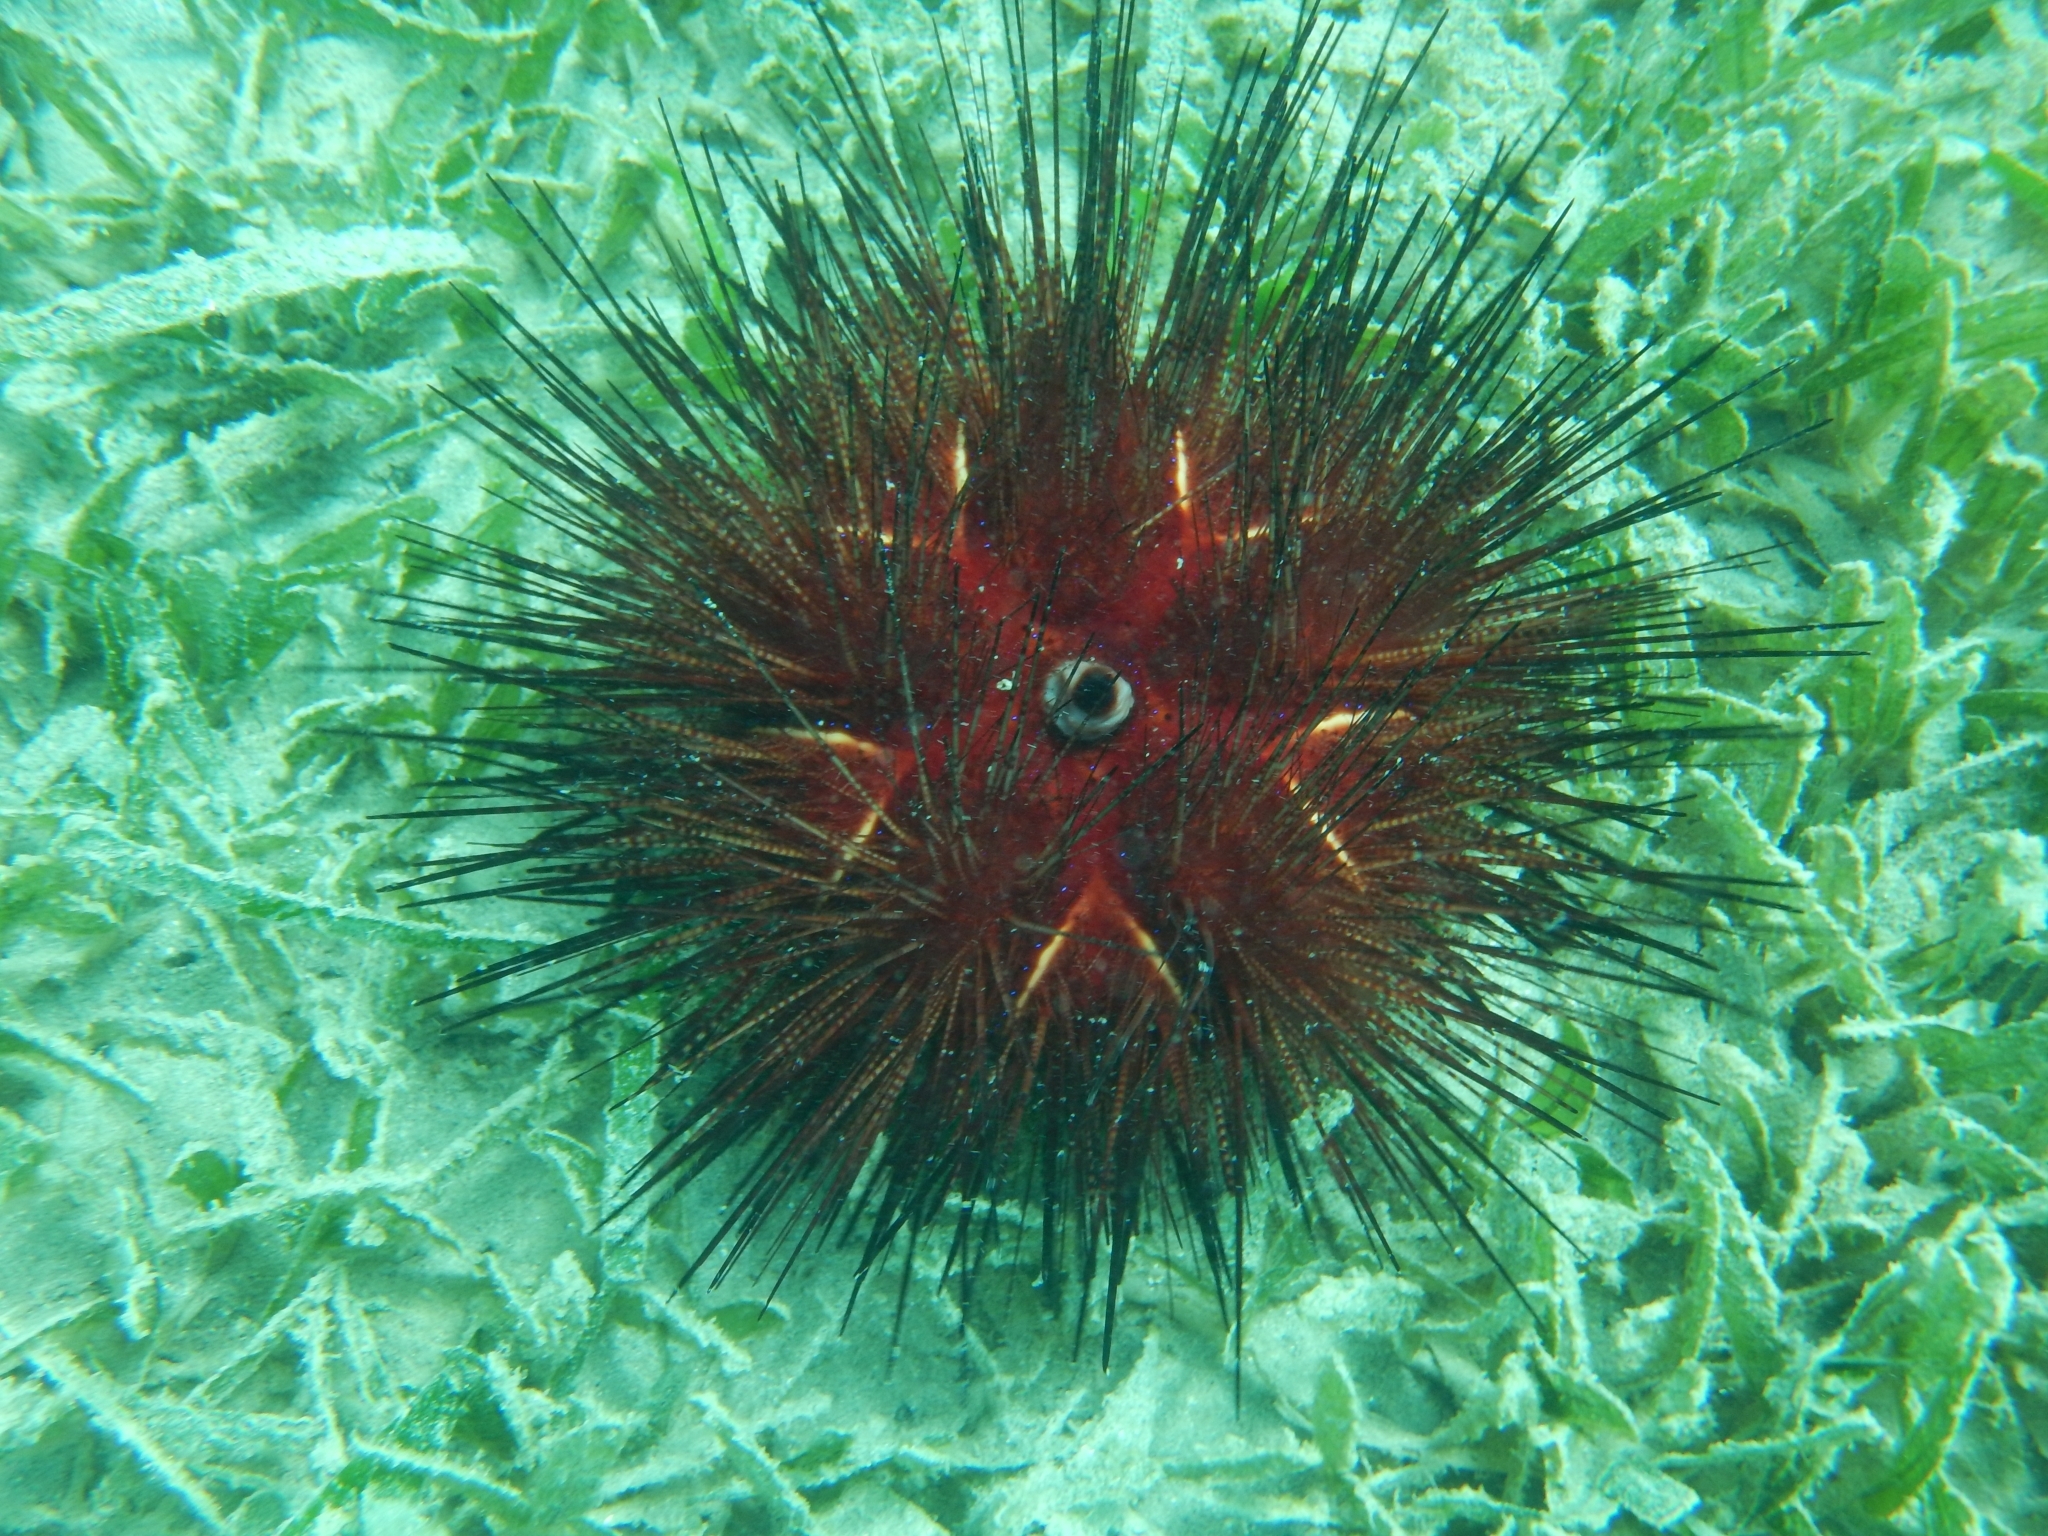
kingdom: Animalia
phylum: Echinodermata
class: Echinoidea
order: Diadematoida
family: Diadematidae
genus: Diadema
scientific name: Diadema antillarum
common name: Spiny urchin
